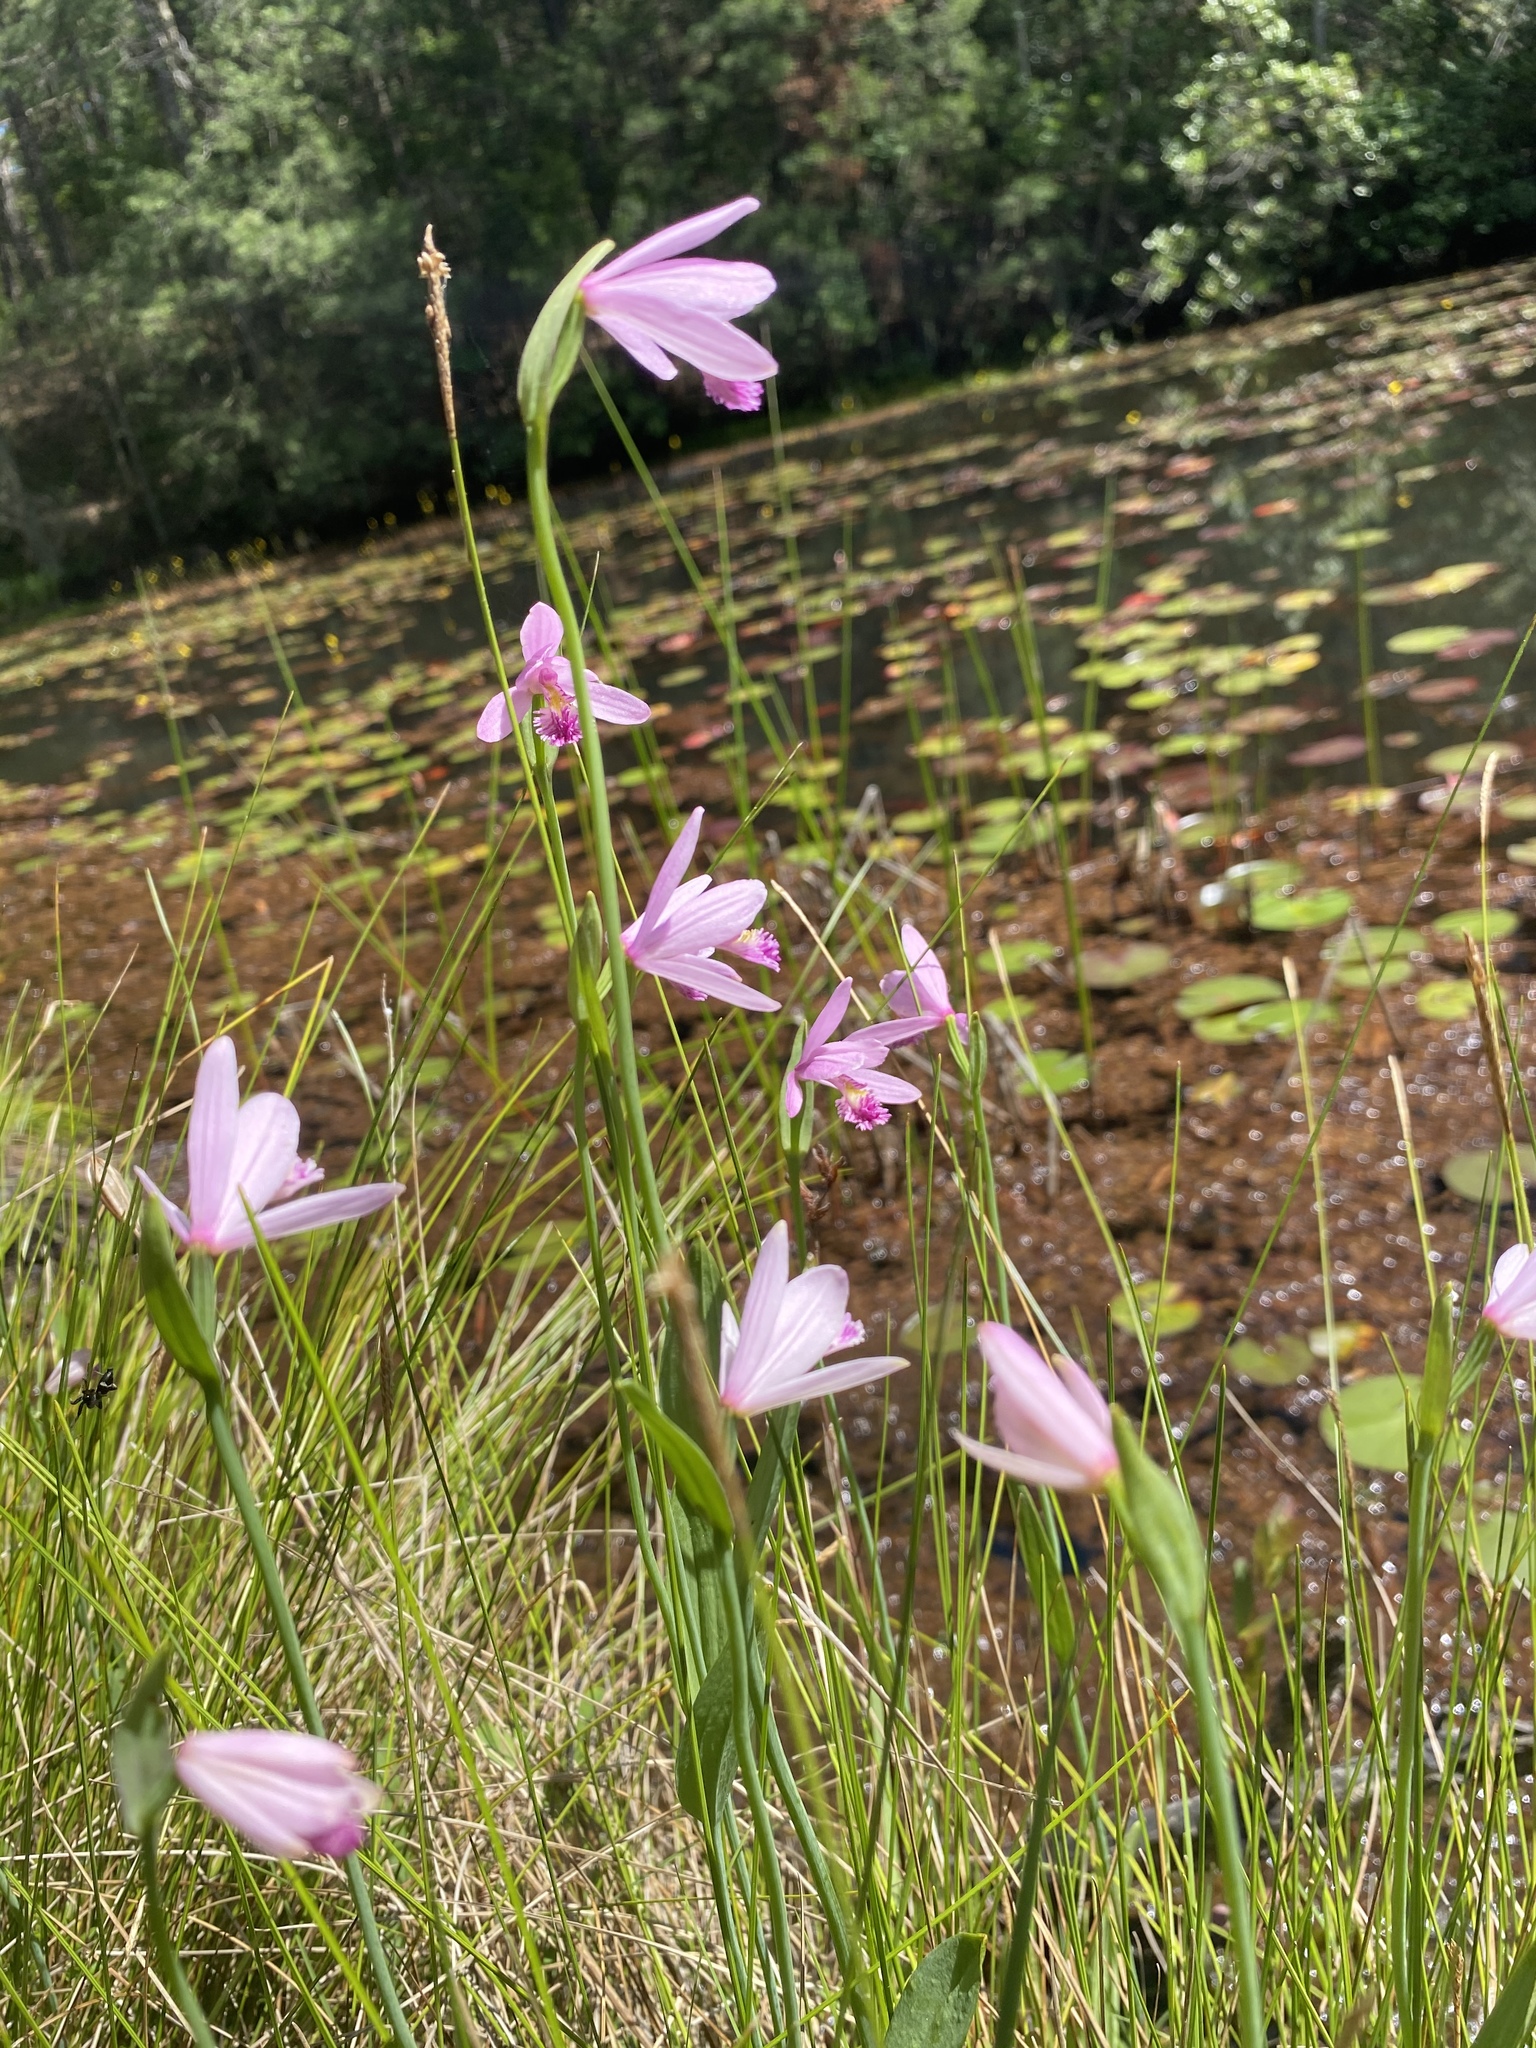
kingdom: Plantae
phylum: Tracheophyta
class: Liliopsida
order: Asparagales
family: Orchidaceae
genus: Pogonia
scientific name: Pogonia ophioglossoides
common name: Rose pogonia
